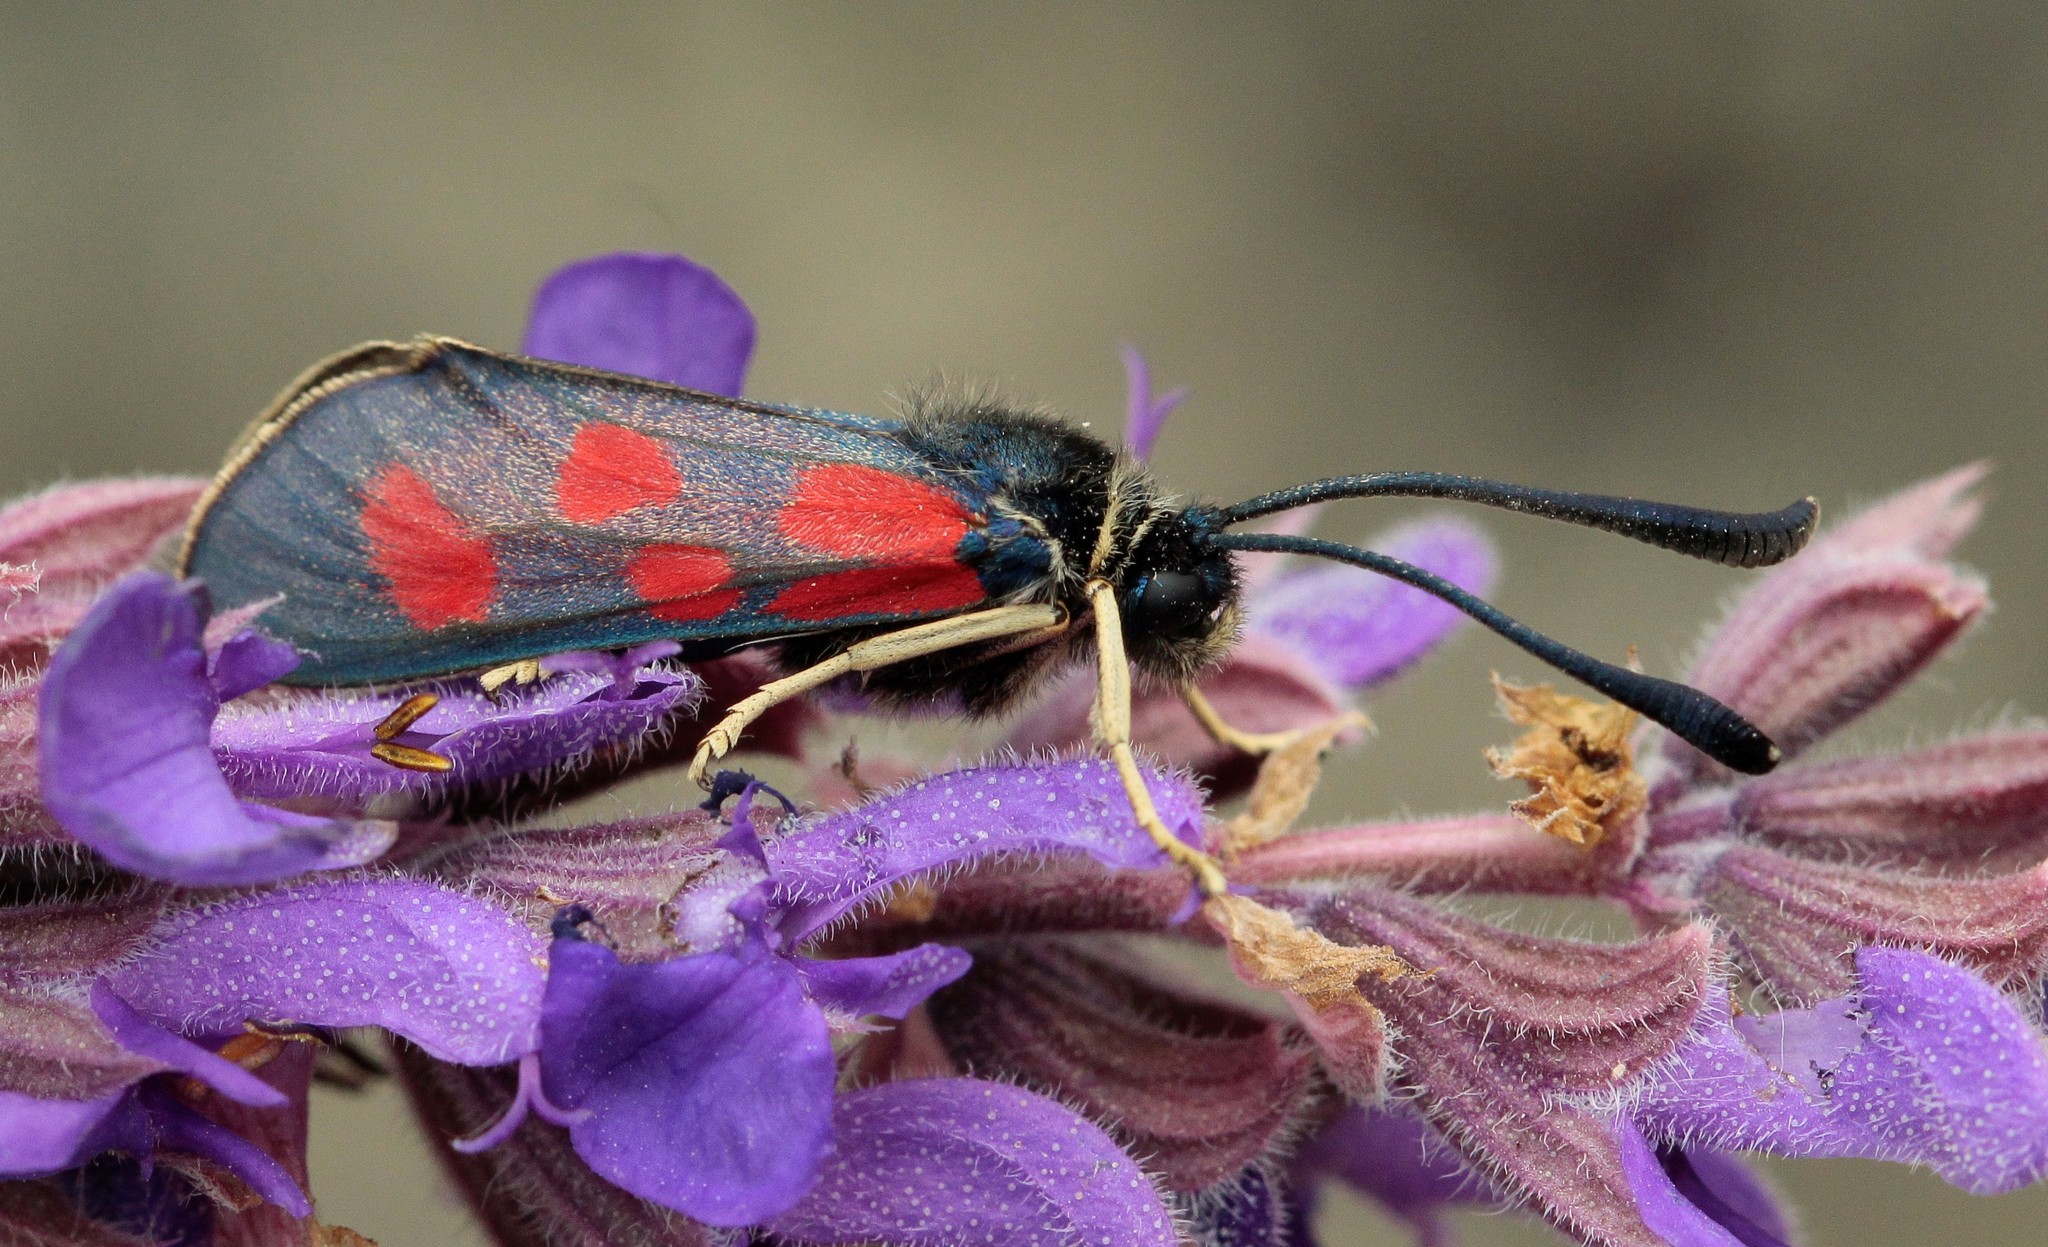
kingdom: Animalia
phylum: Arthropoda
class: Insecta
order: Lepidoptera
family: Zygaenidae
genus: Zygaena
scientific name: Zygaena loti
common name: Slender scotch burnet
